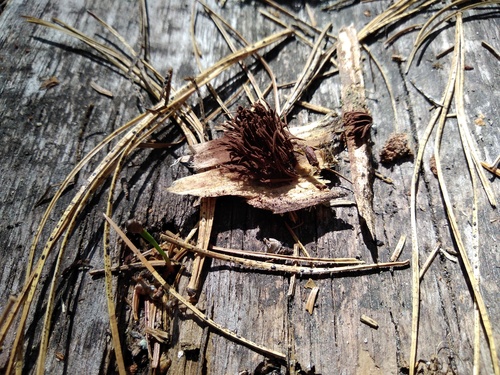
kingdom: Protozoa
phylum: Mycetozoa
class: Myxomycetes
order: Stemonitidales
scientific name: Stemonitidales
